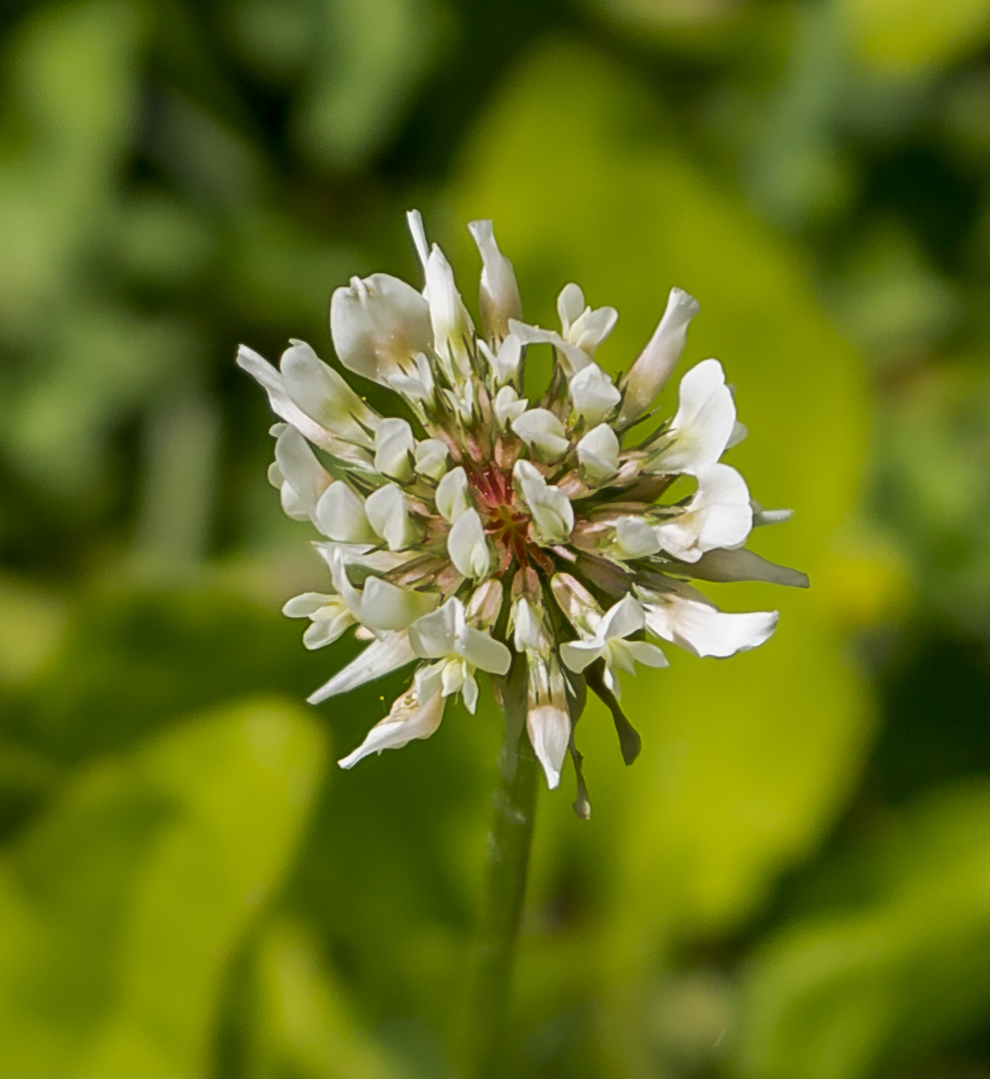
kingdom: Plantae
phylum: Tracheophyta
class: Magnoliopsida
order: Fabales
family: Fabaceae
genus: Trifolium
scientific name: Trifolium repens
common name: White clover
